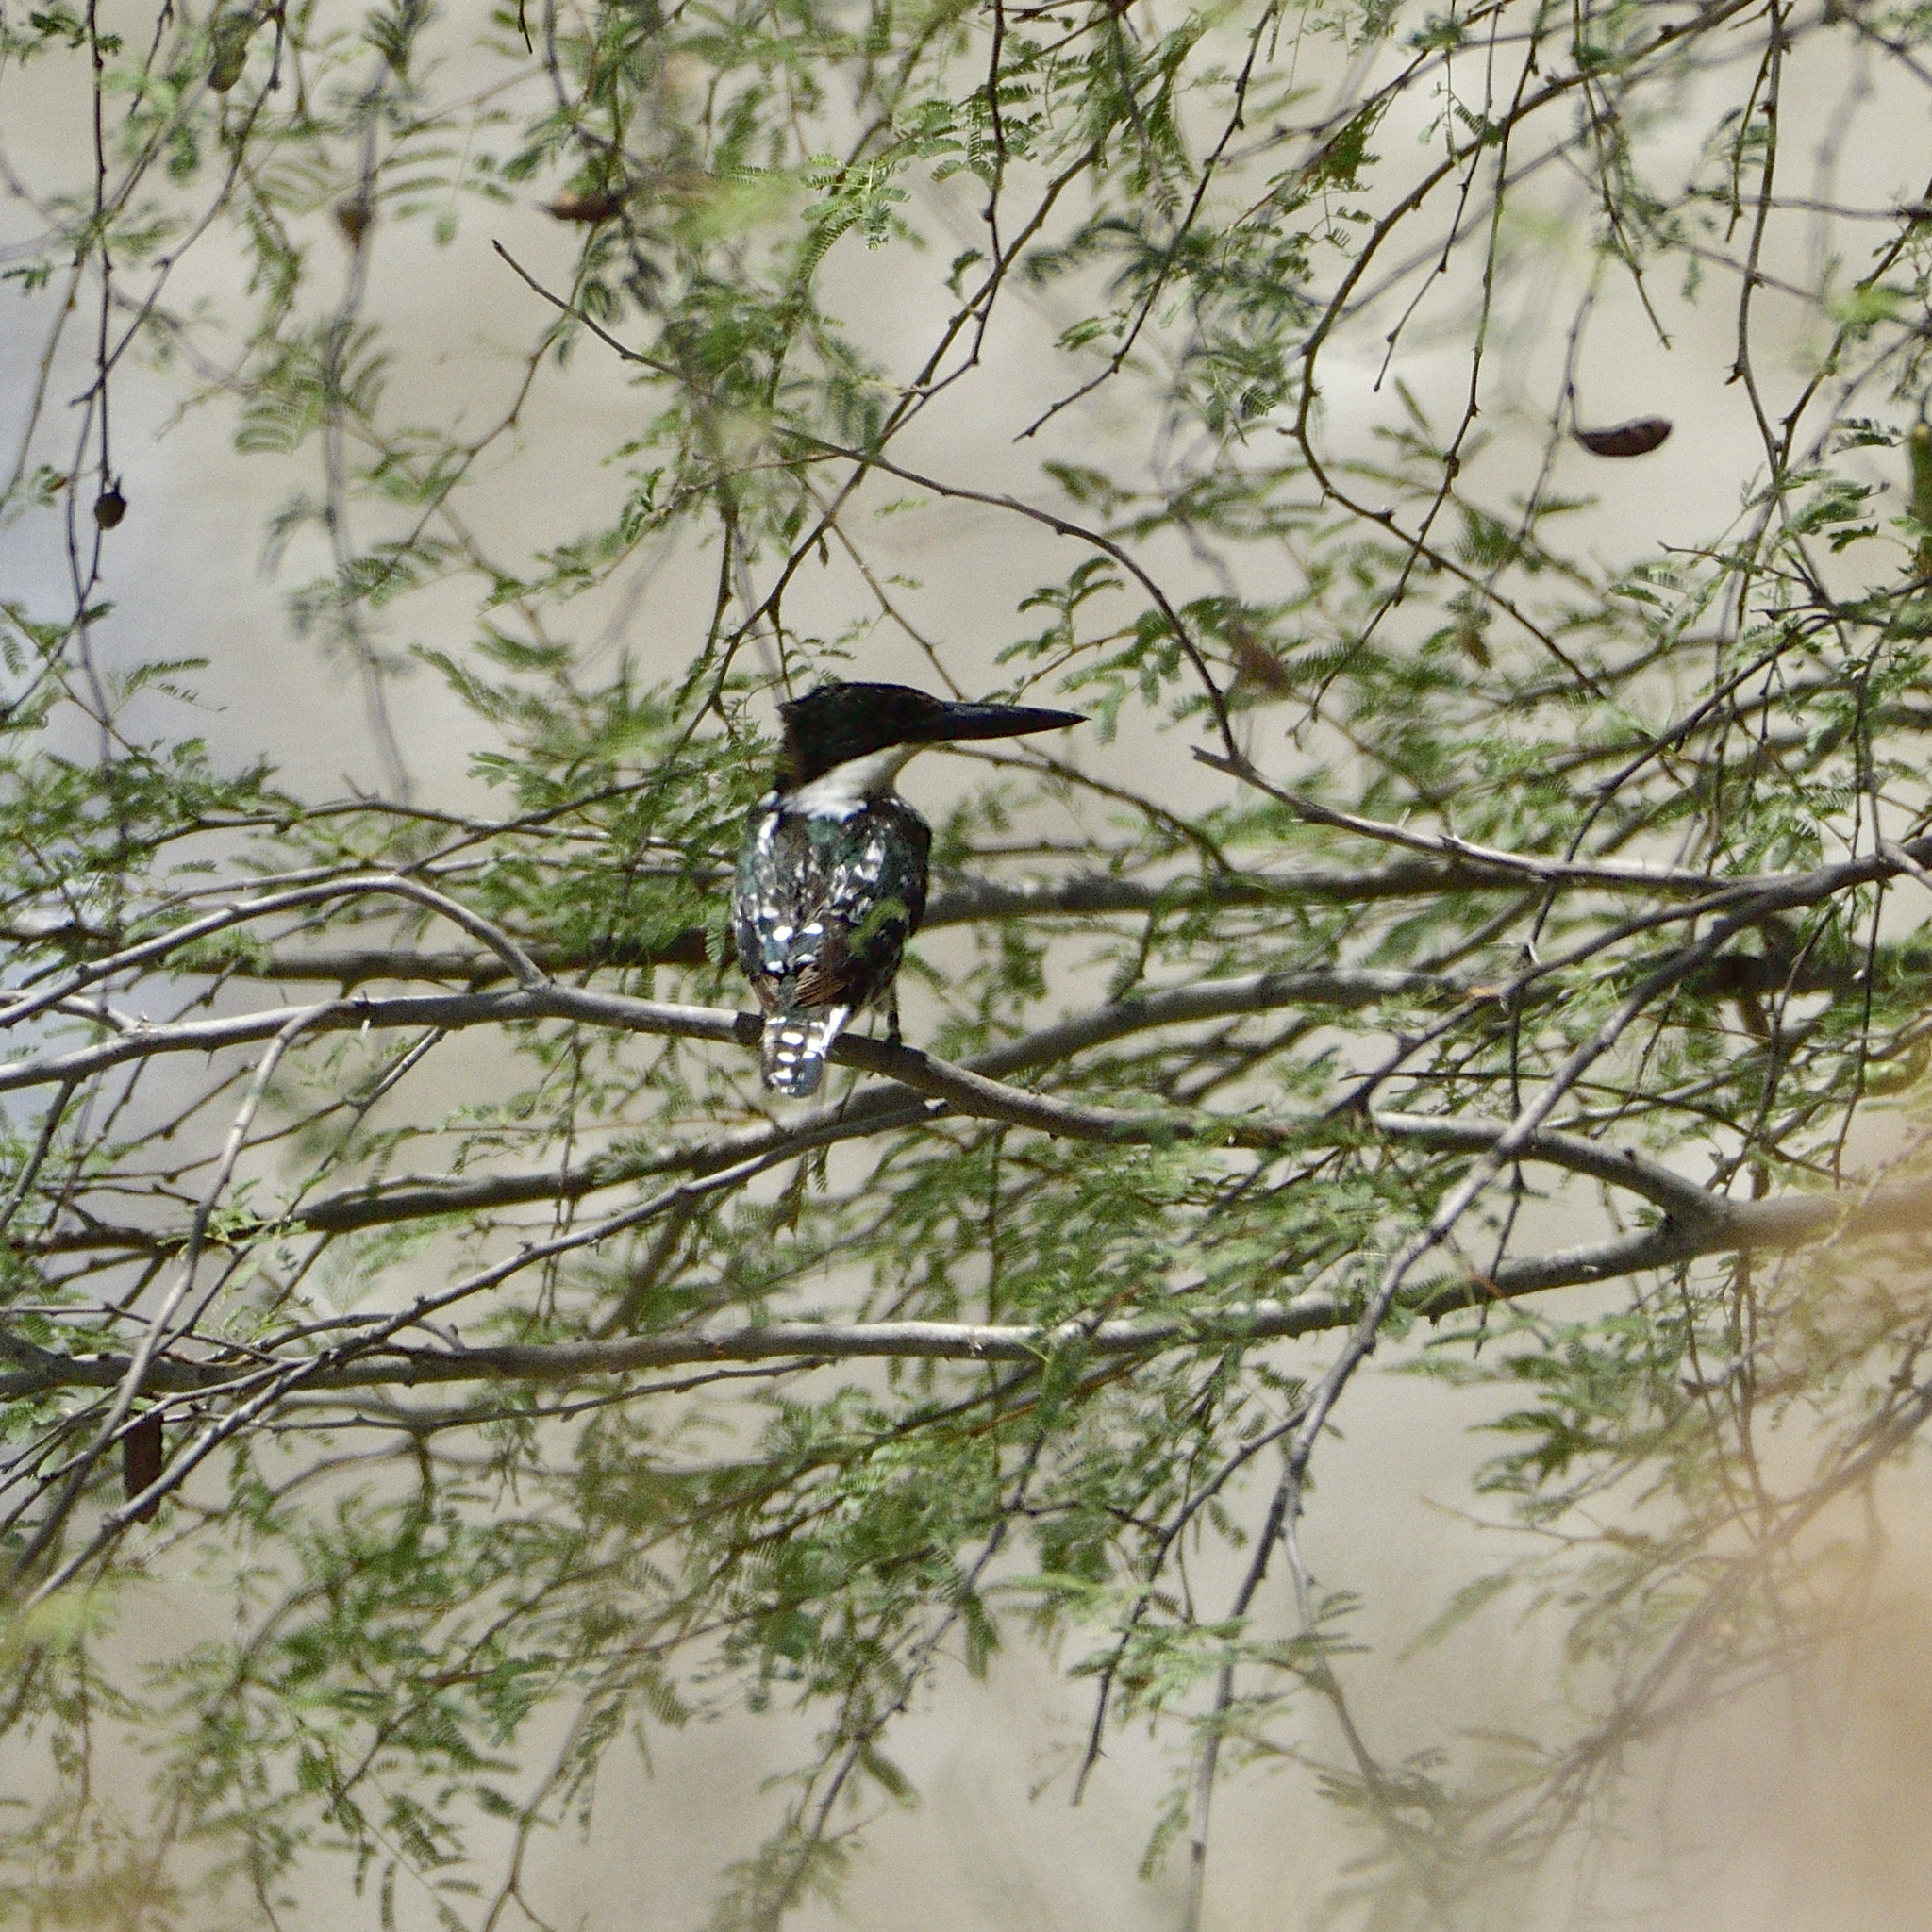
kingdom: Animalia
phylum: Chordata
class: Aves
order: Coraciiformes
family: Alcedinidae
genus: Chloroceryle
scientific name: Chloroceryle americana
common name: Green kingfisher
